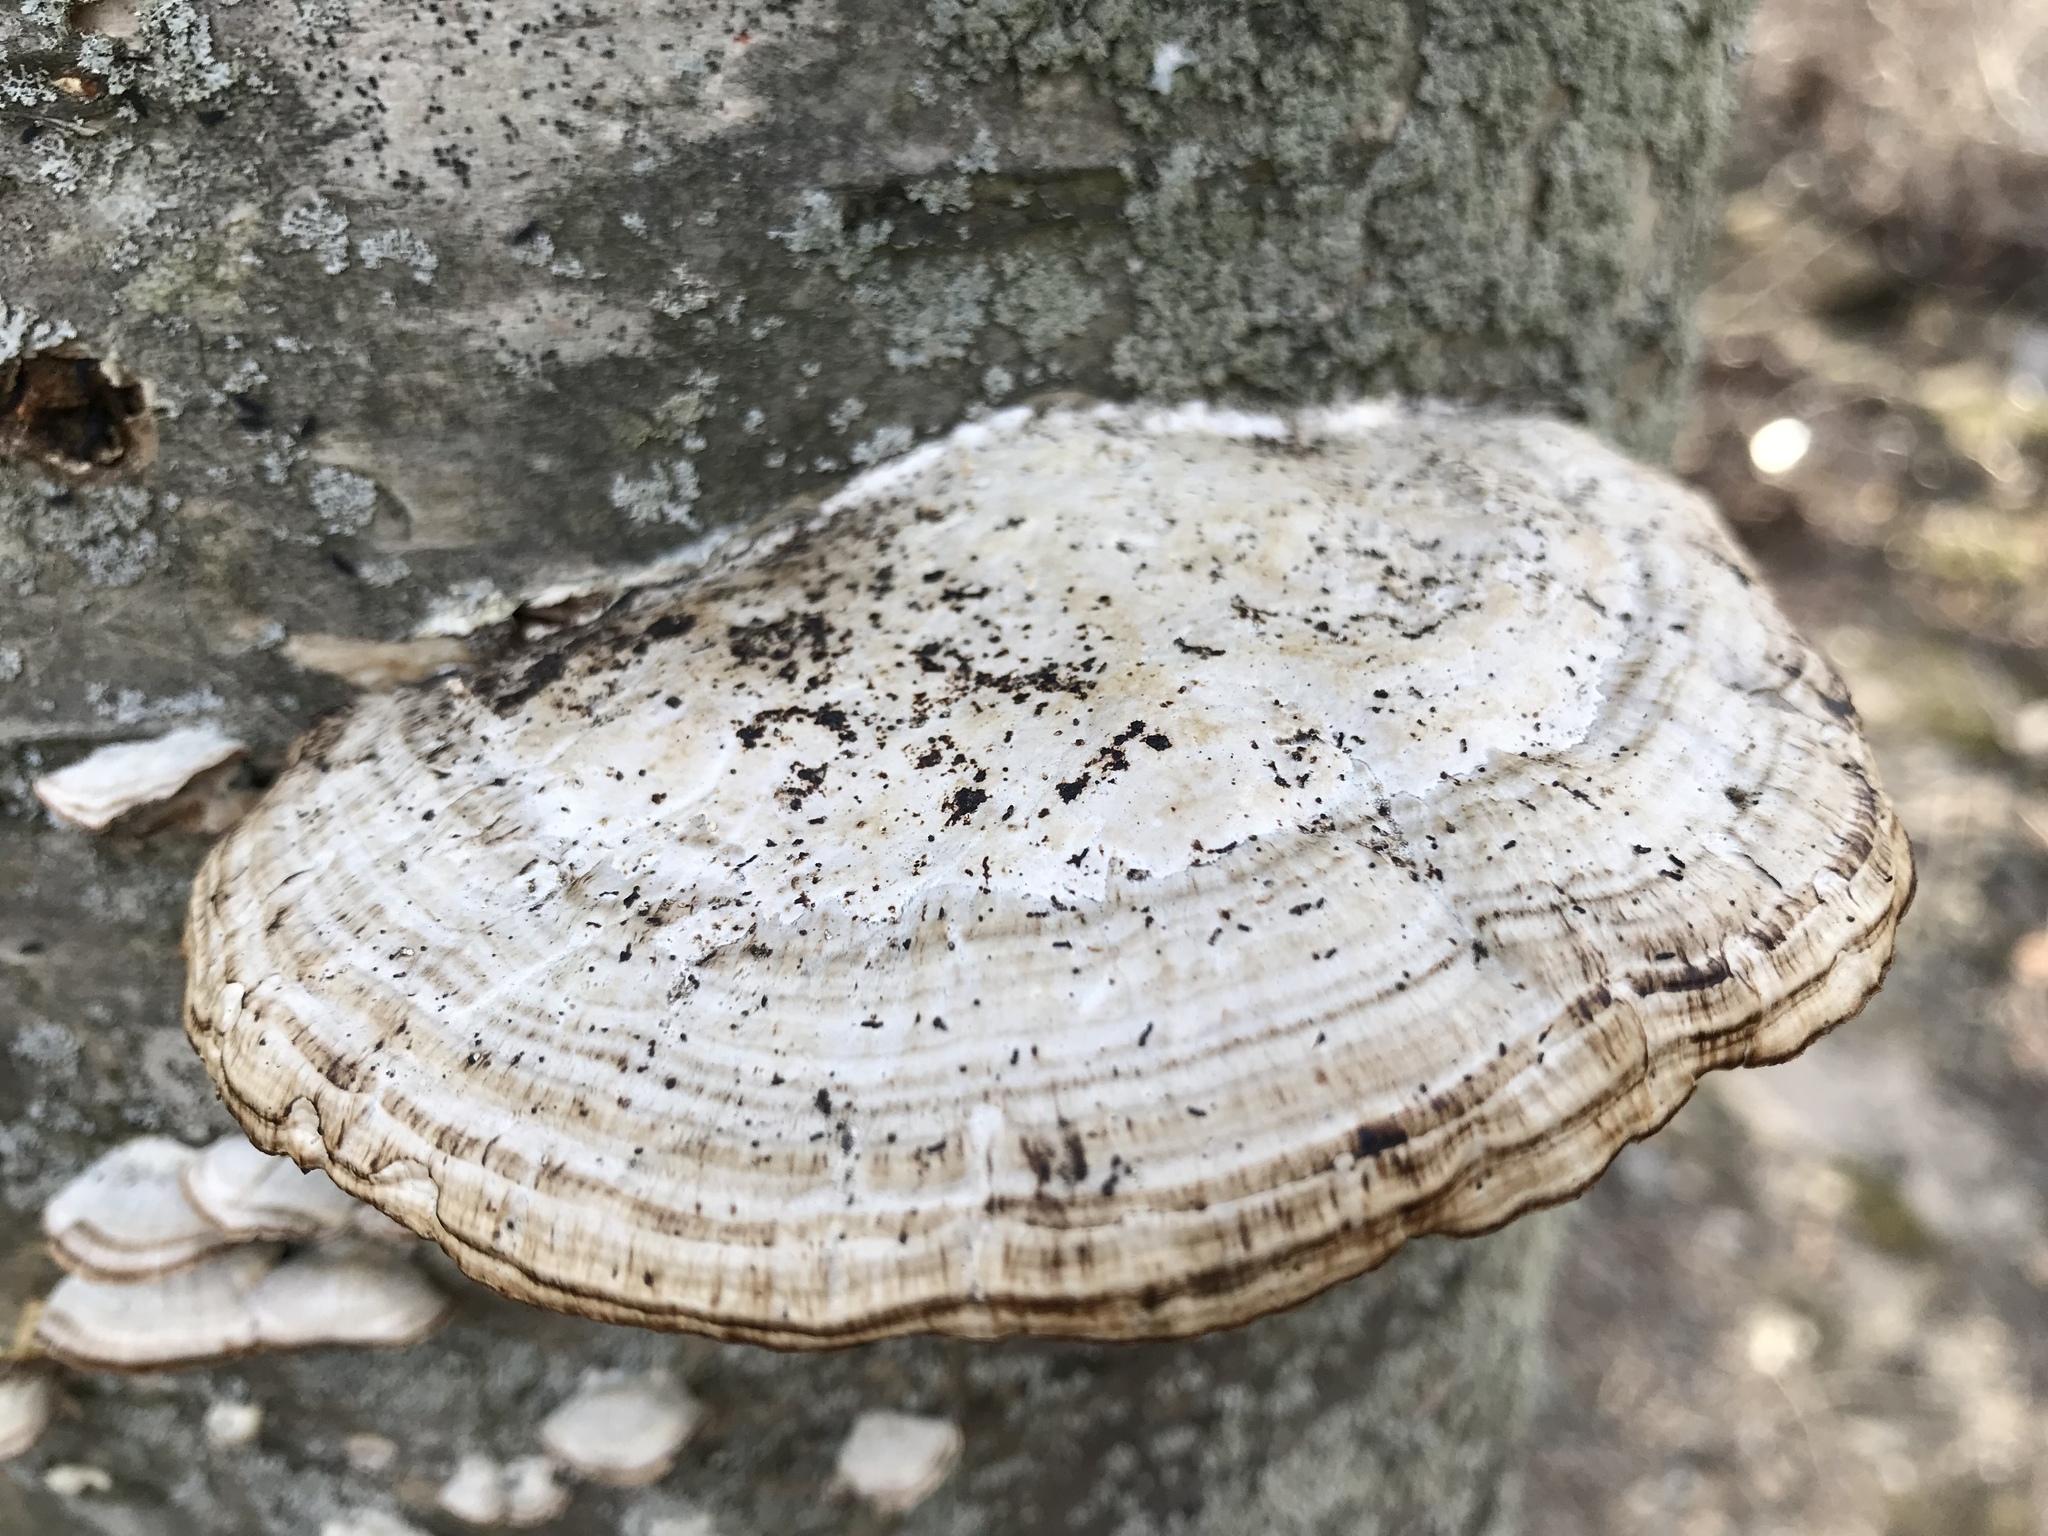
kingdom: Fungi
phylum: Basidiomycota
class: Agaricomycetes
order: Polyporales
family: Polyporaceae
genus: Daedaleopsis
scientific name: Daedaleopsis confragosa
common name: Blushing bracket
